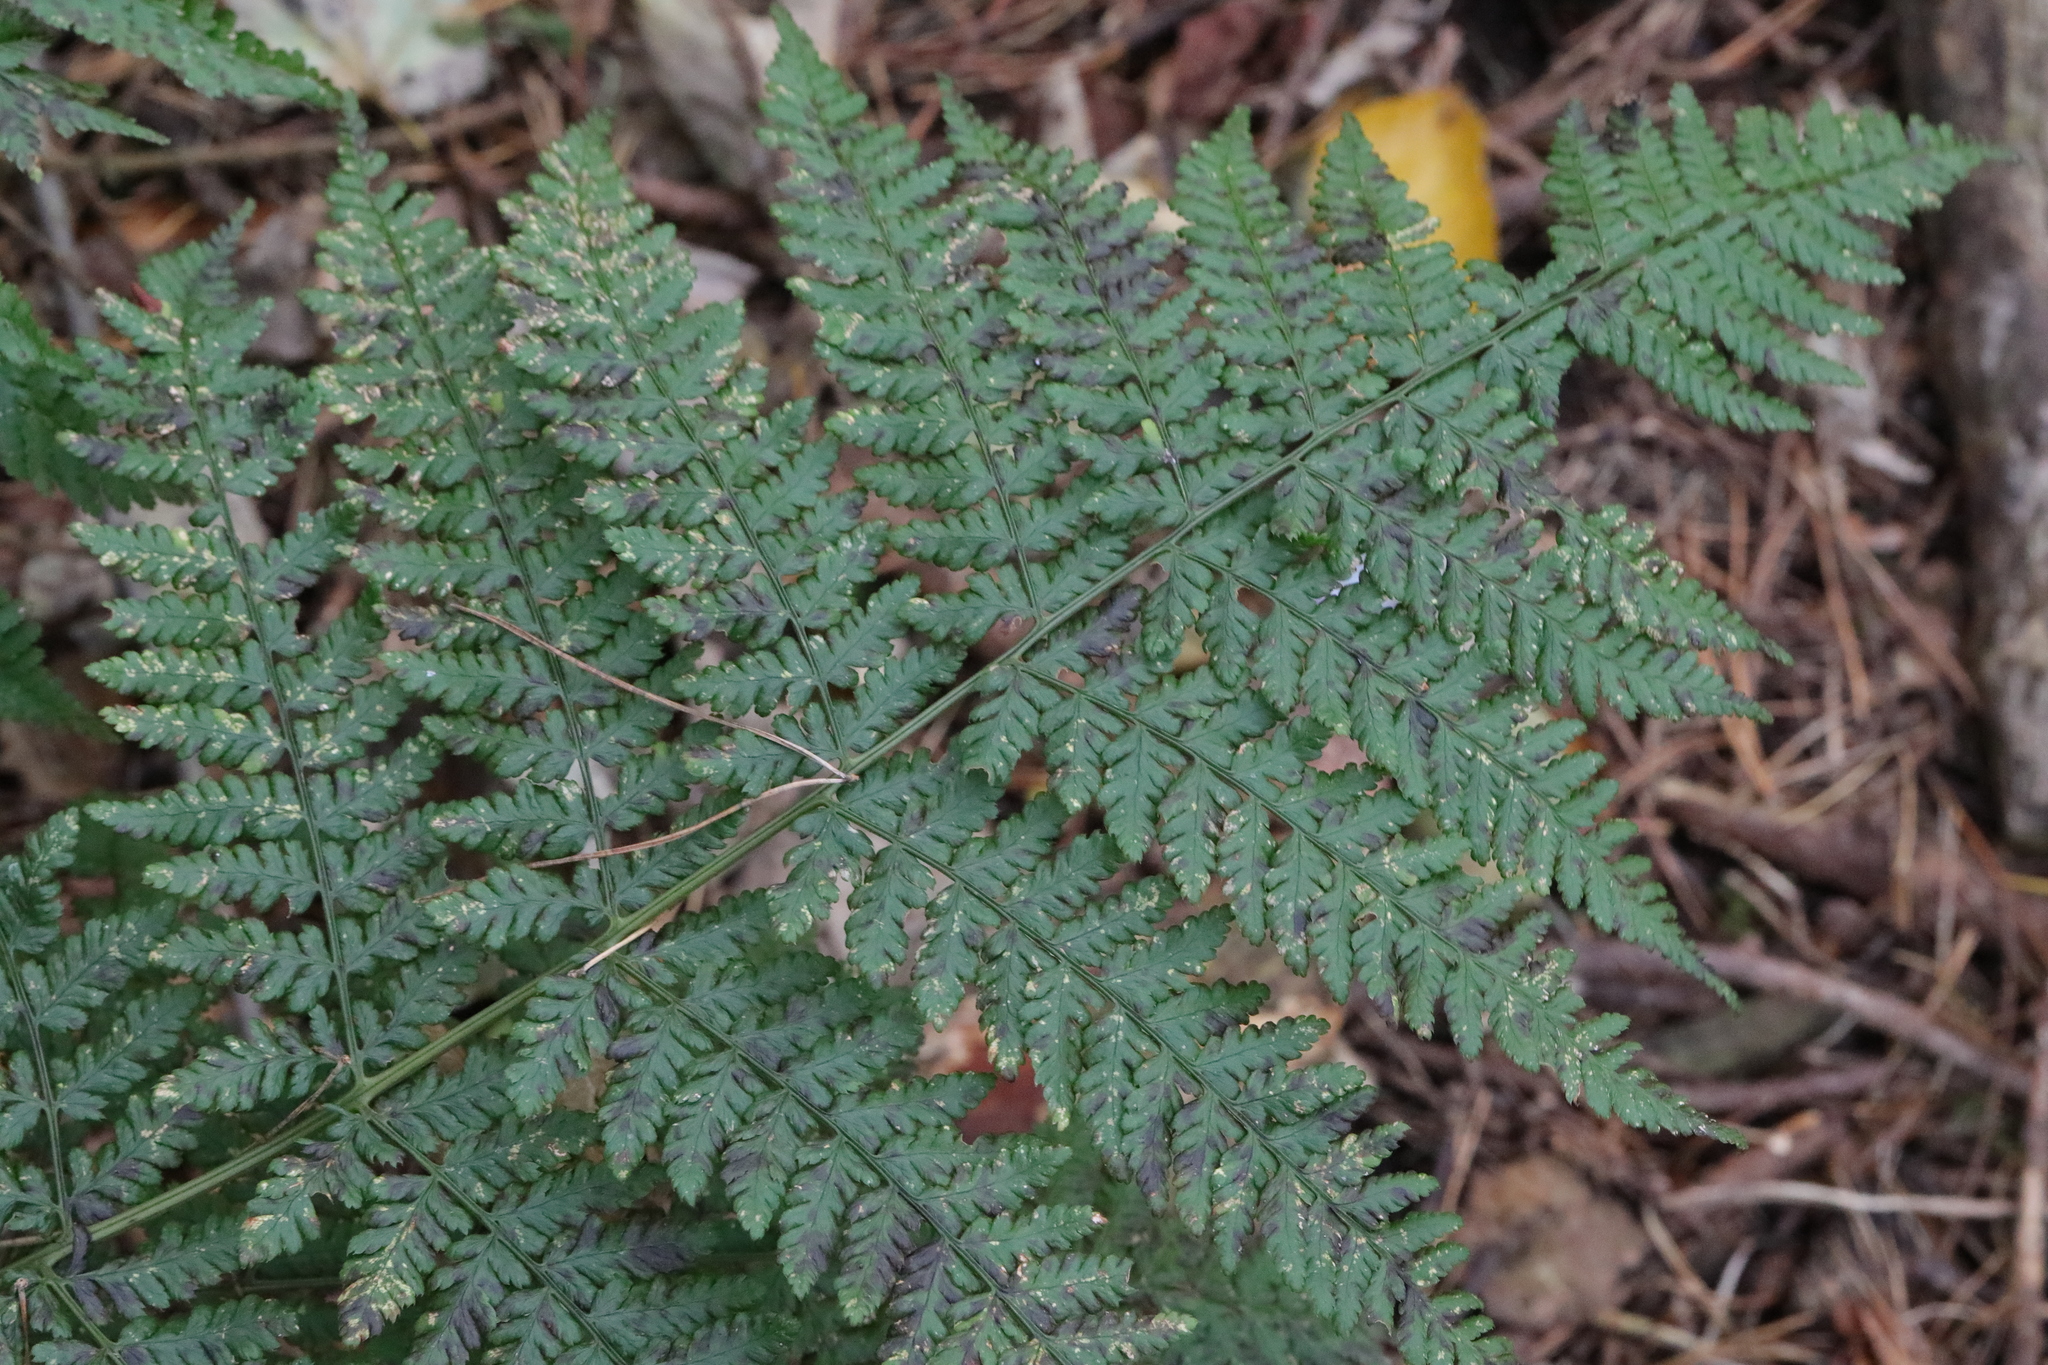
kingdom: Plantae
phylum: Tracheophyta
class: Polypodiopsida
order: Polypodiales
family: Dryopteridaceae
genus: Dryopteris
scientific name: Dryopteris dilatata
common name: Broad buckler-fern
